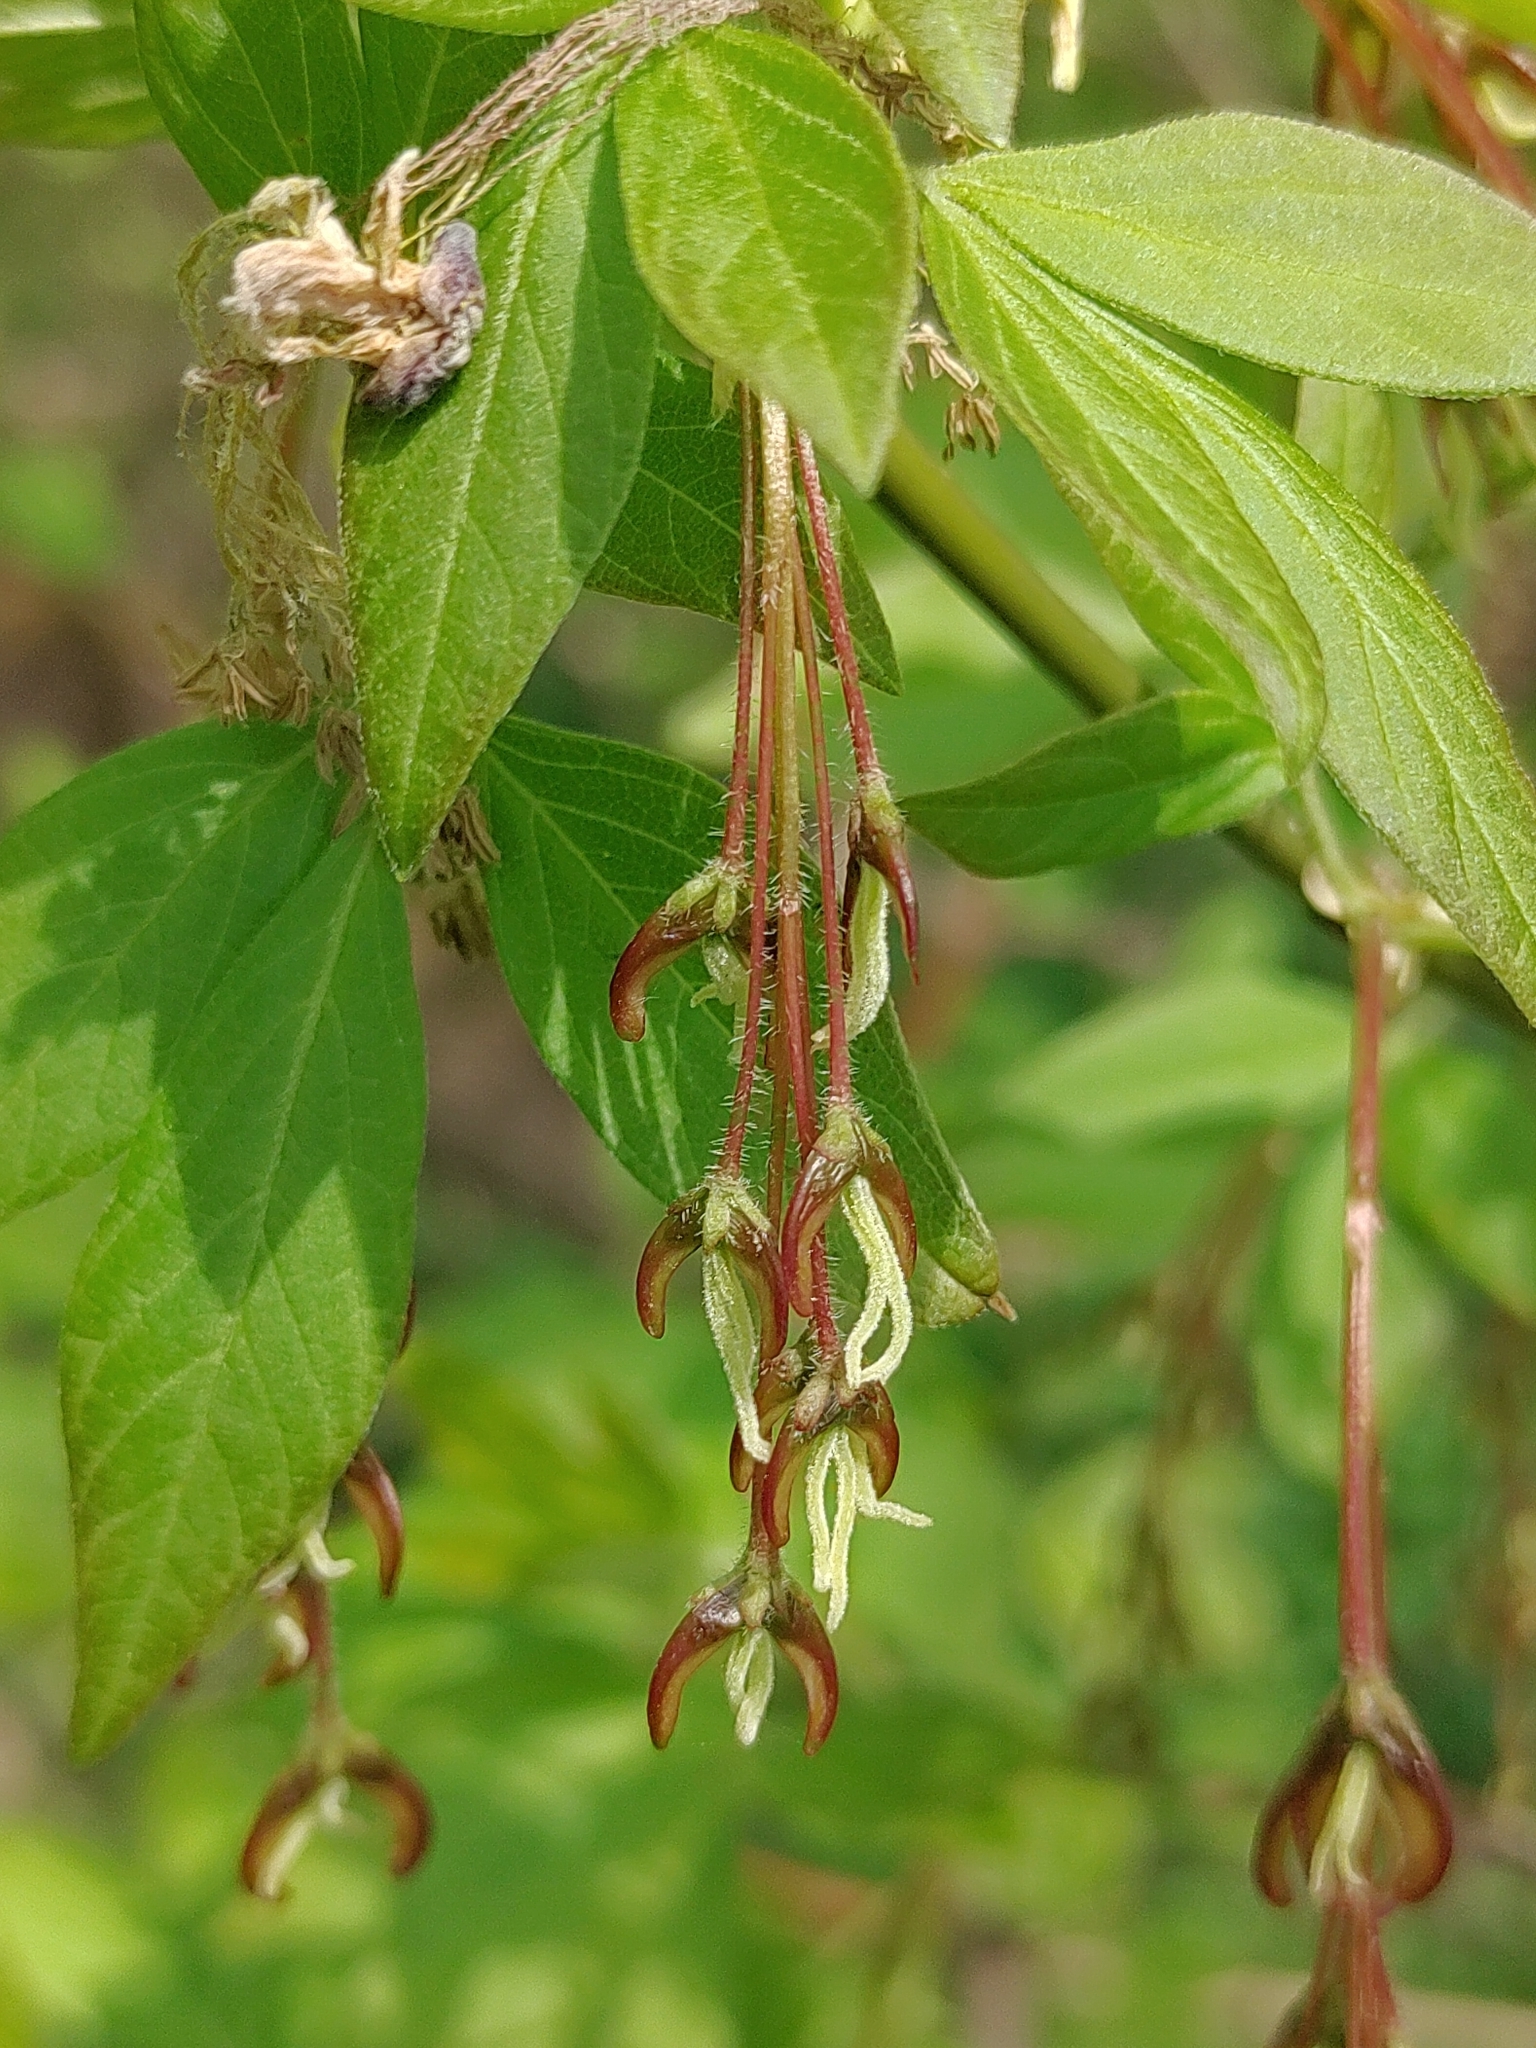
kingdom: Plantae
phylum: Tracheophyta
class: Magnoliopsida
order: Sapindales
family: Sapindaceae
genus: Acer
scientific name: Acer negundo
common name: Ashleaf maple
